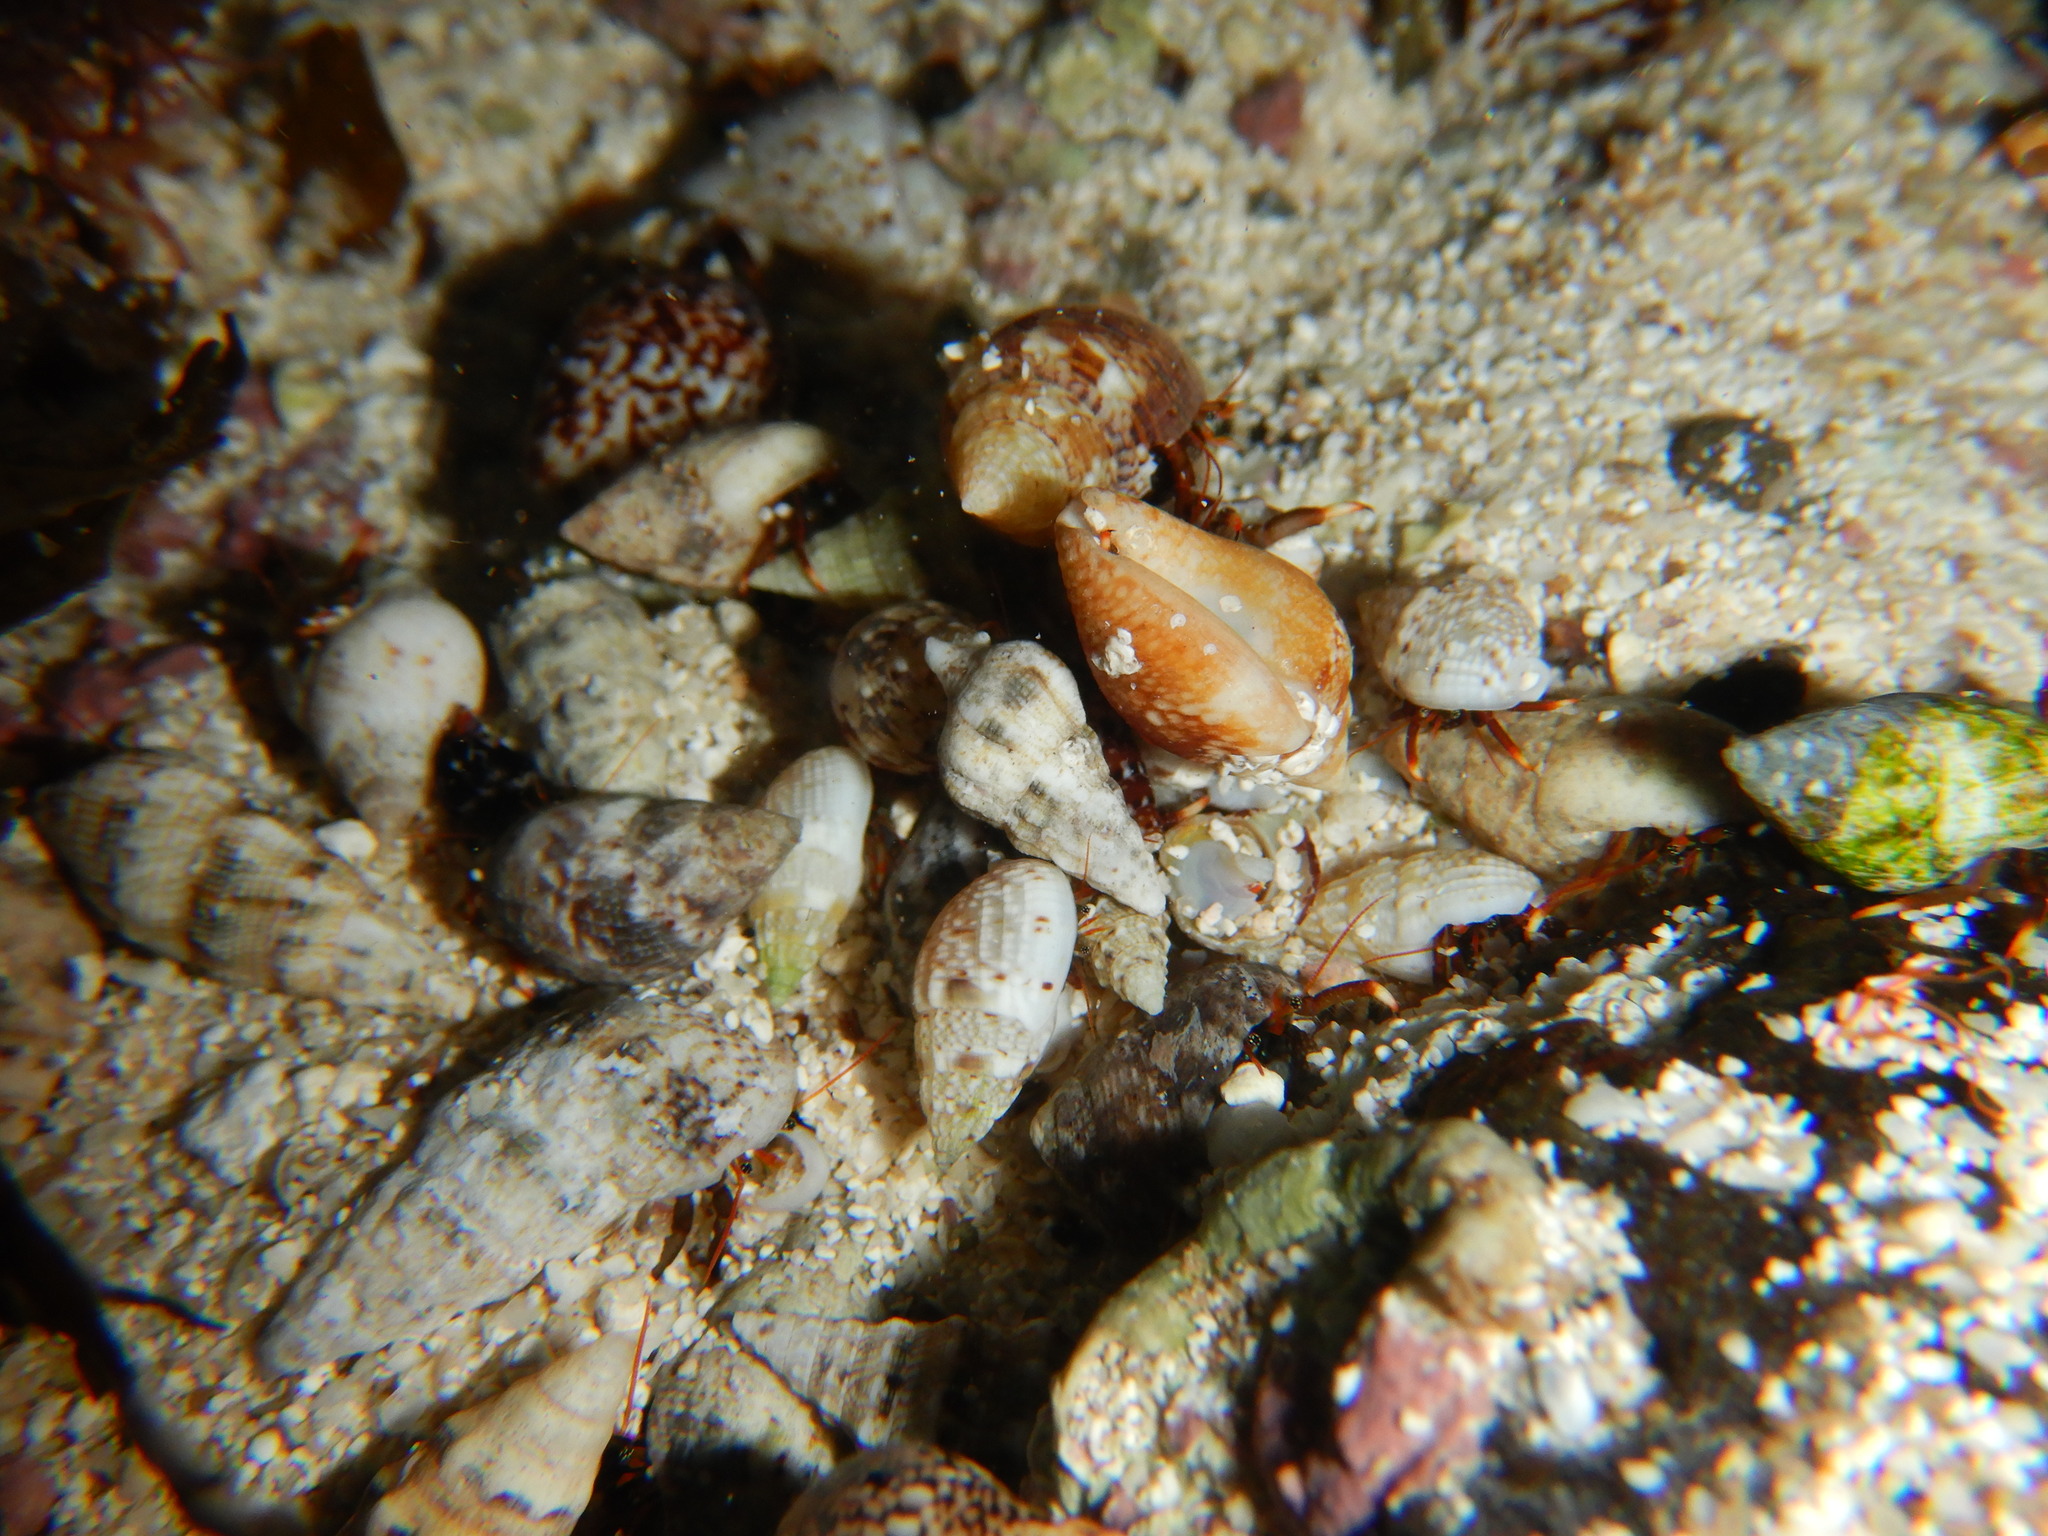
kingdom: Animalia
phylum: Arthropoda
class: Malacostraca
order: Decapoda
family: Diogenidae
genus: Clibanarius
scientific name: Clibanarius aequabilis
